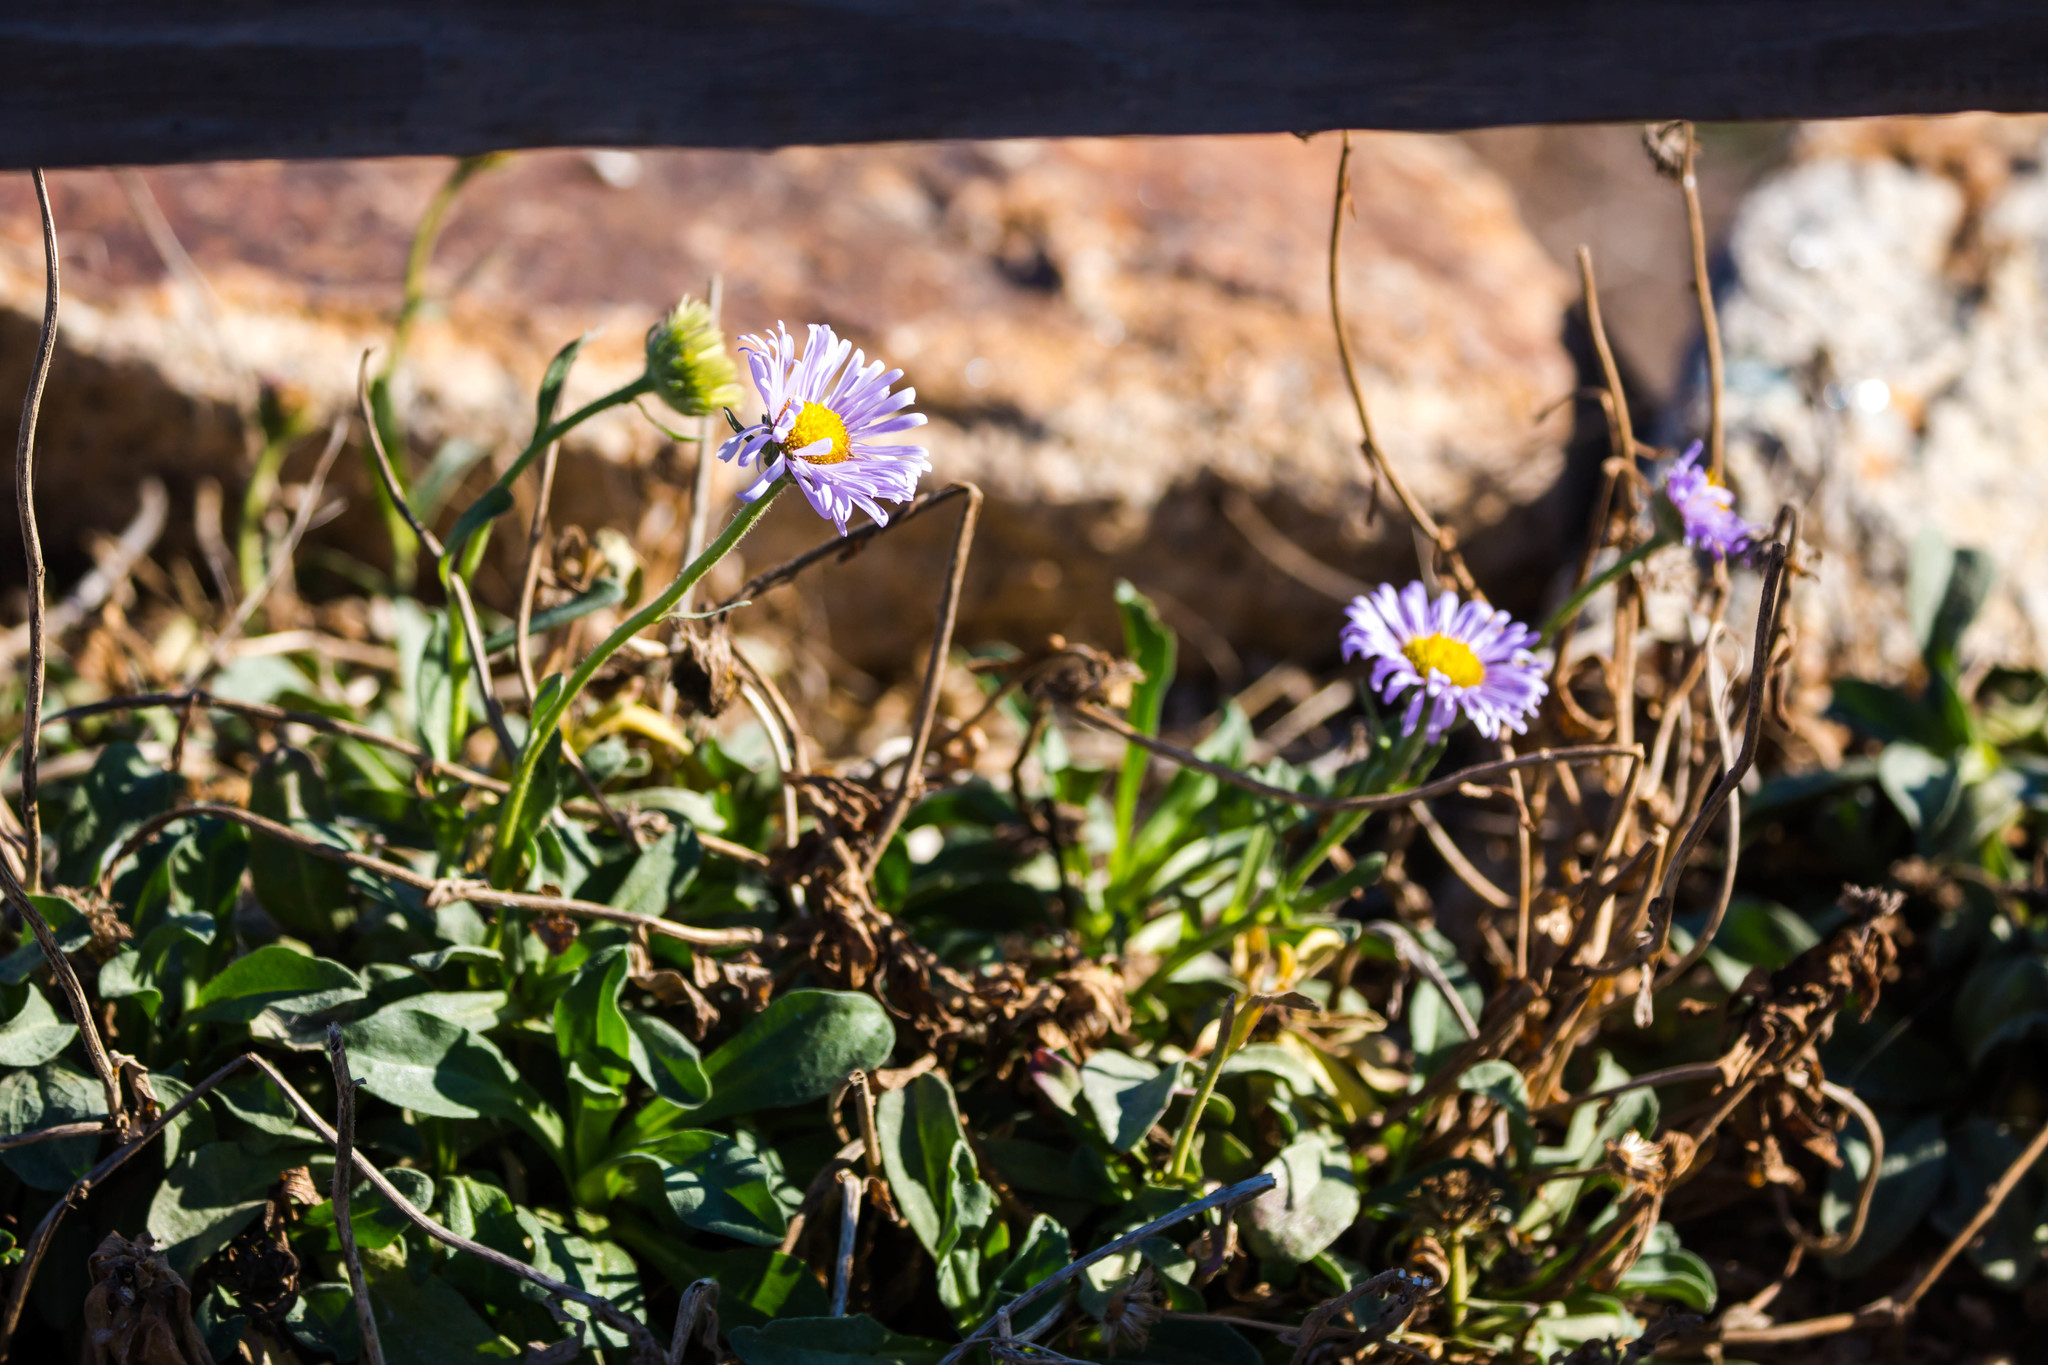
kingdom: Plantae
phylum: Tracheophyta
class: Magnoliopsida
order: Asterales
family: Asteraceae
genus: Erigeron
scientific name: Erigeron glaucus
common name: Seaside daisy
